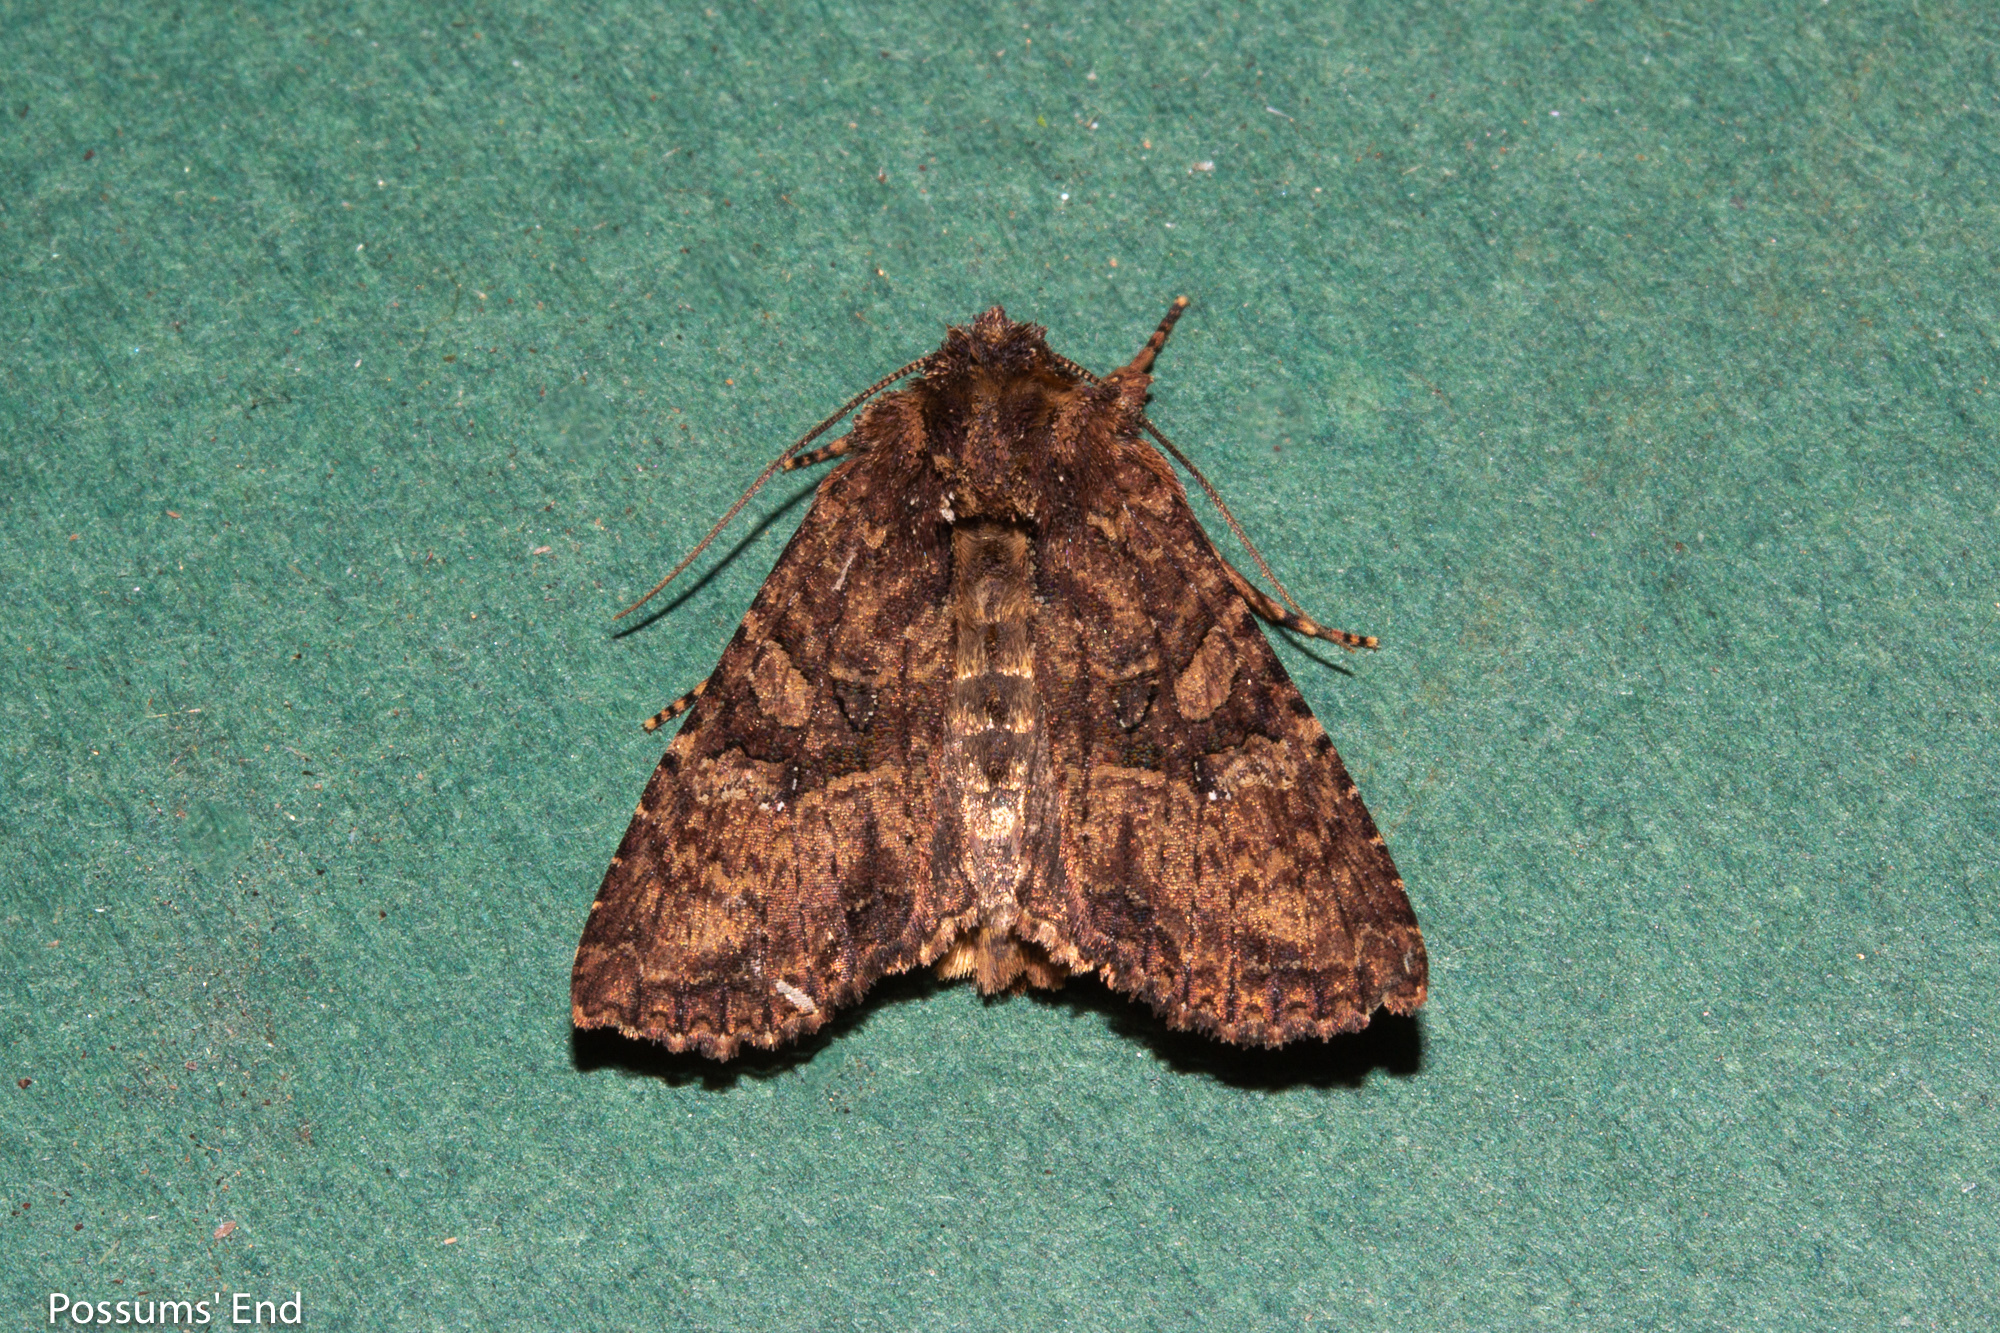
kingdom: Animalia
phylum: Arthropoda
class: Insecta
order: Lepidoptera
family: Noctuidae
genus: Meterana
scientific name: Meterana ochthistis
